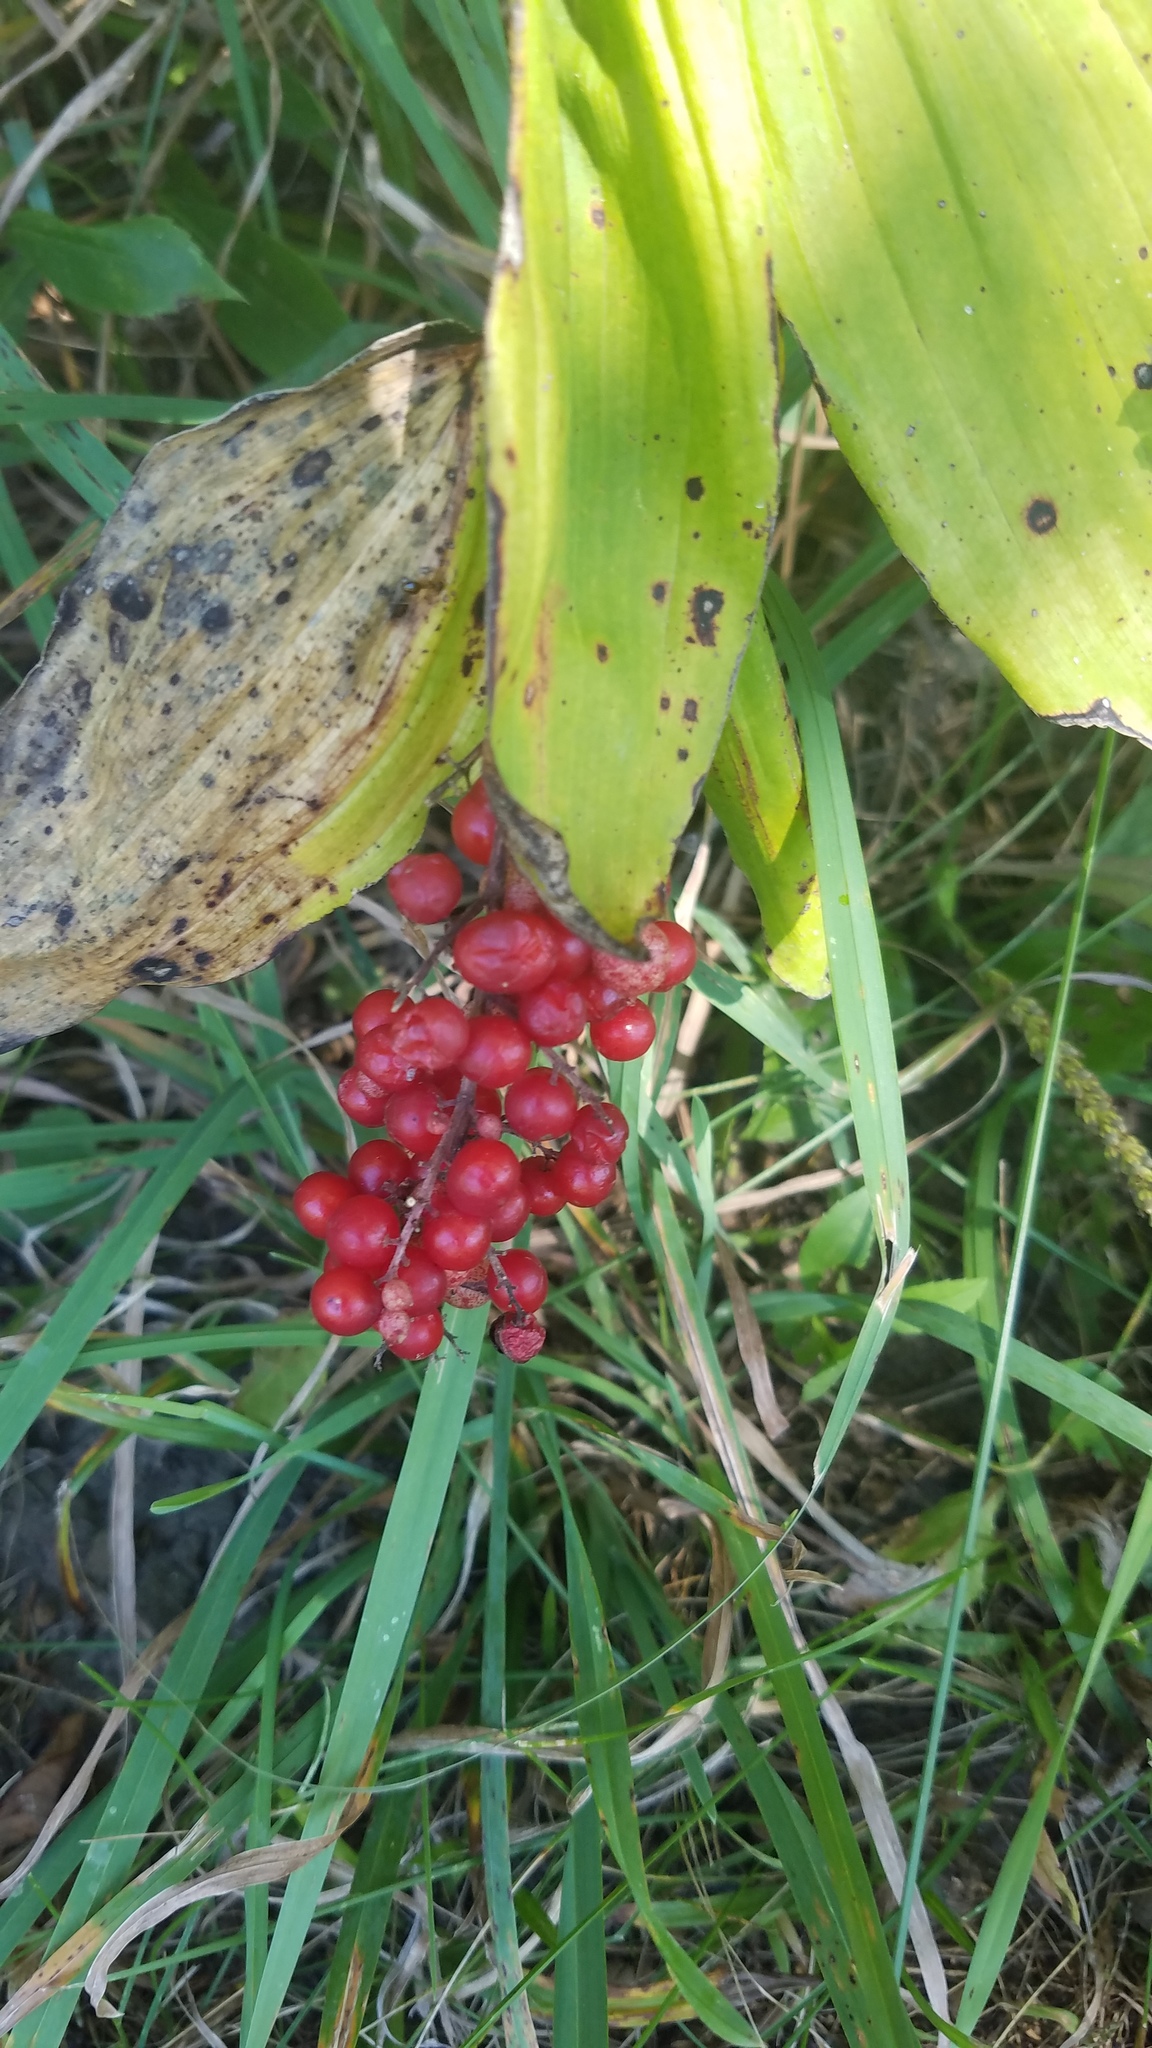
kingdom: Plantae
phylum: Tracheophyta
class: Liliopsida
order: Asparagales
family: Asparagaceae
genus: Maianthemum
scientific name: Maianthemum racemosum
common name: False spikenard
